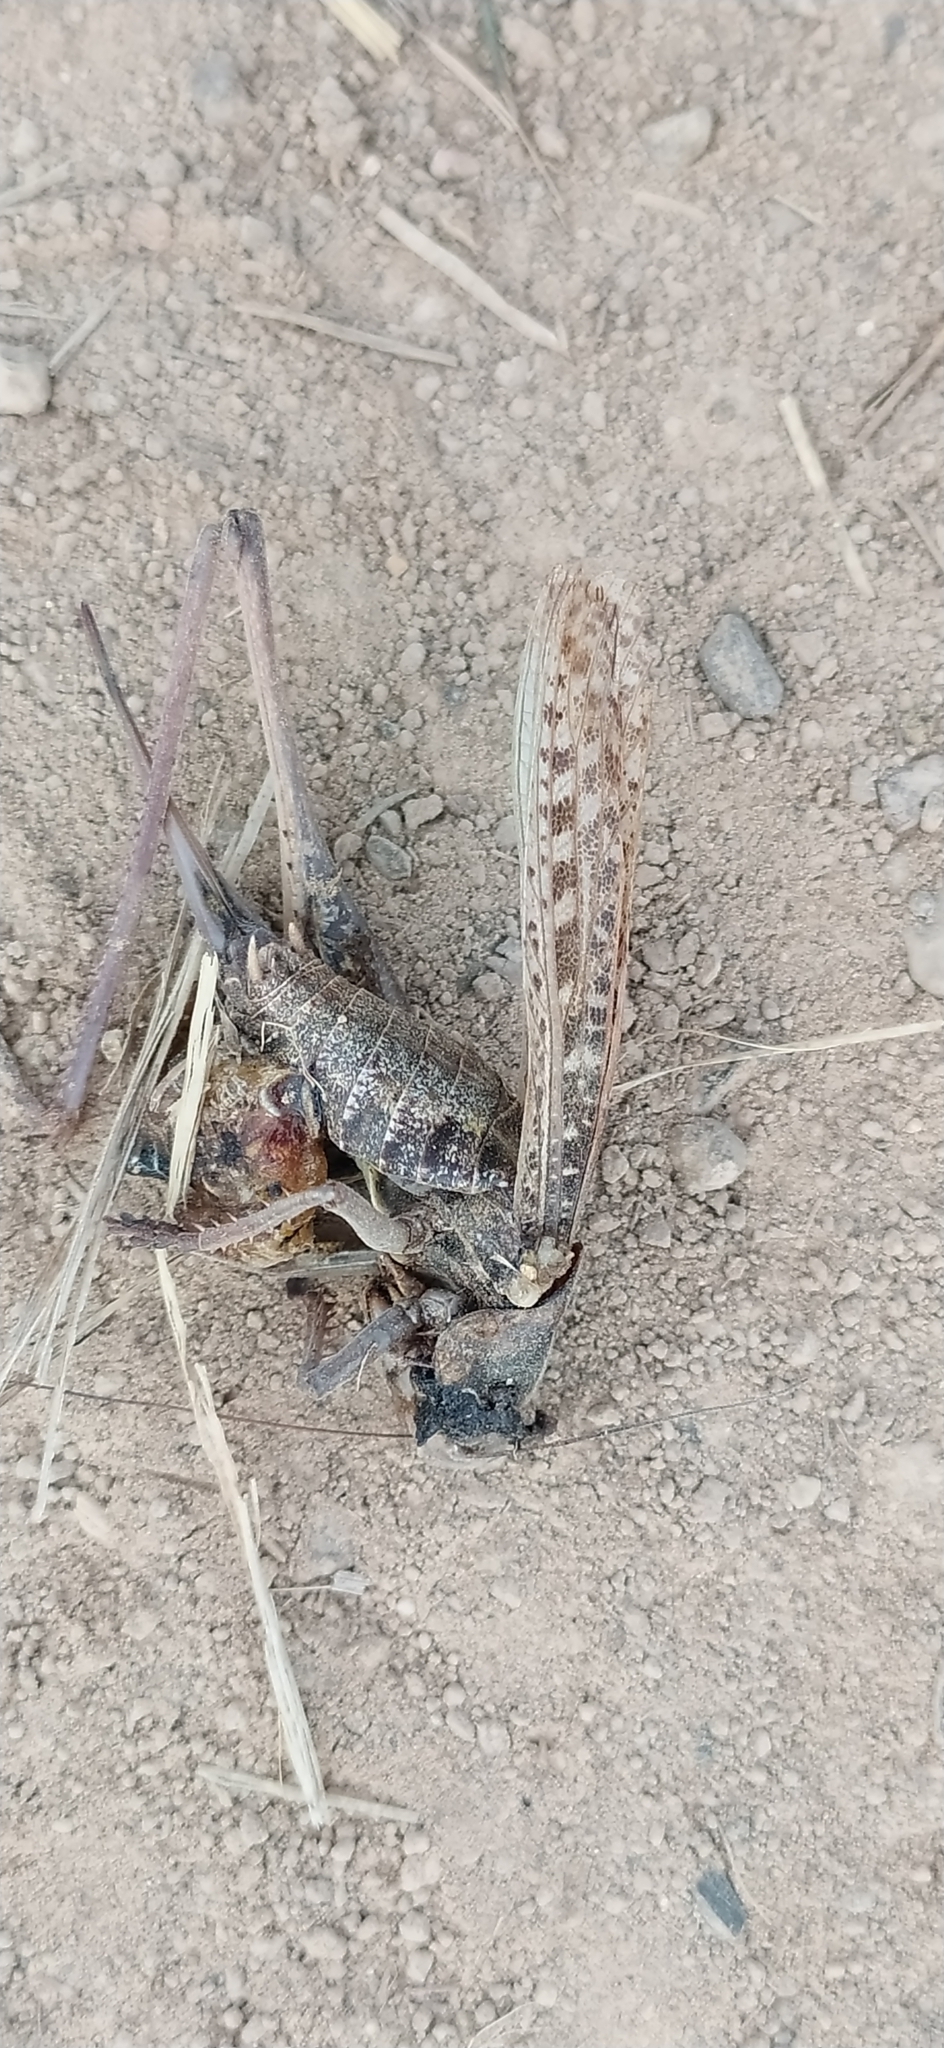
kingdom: Animalia
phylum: Arthropoda
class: Insecta
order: Orthoptera
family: Tettigoniidae
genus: Decticus
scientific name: Decticus verrucivorus
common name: Wart-biter
